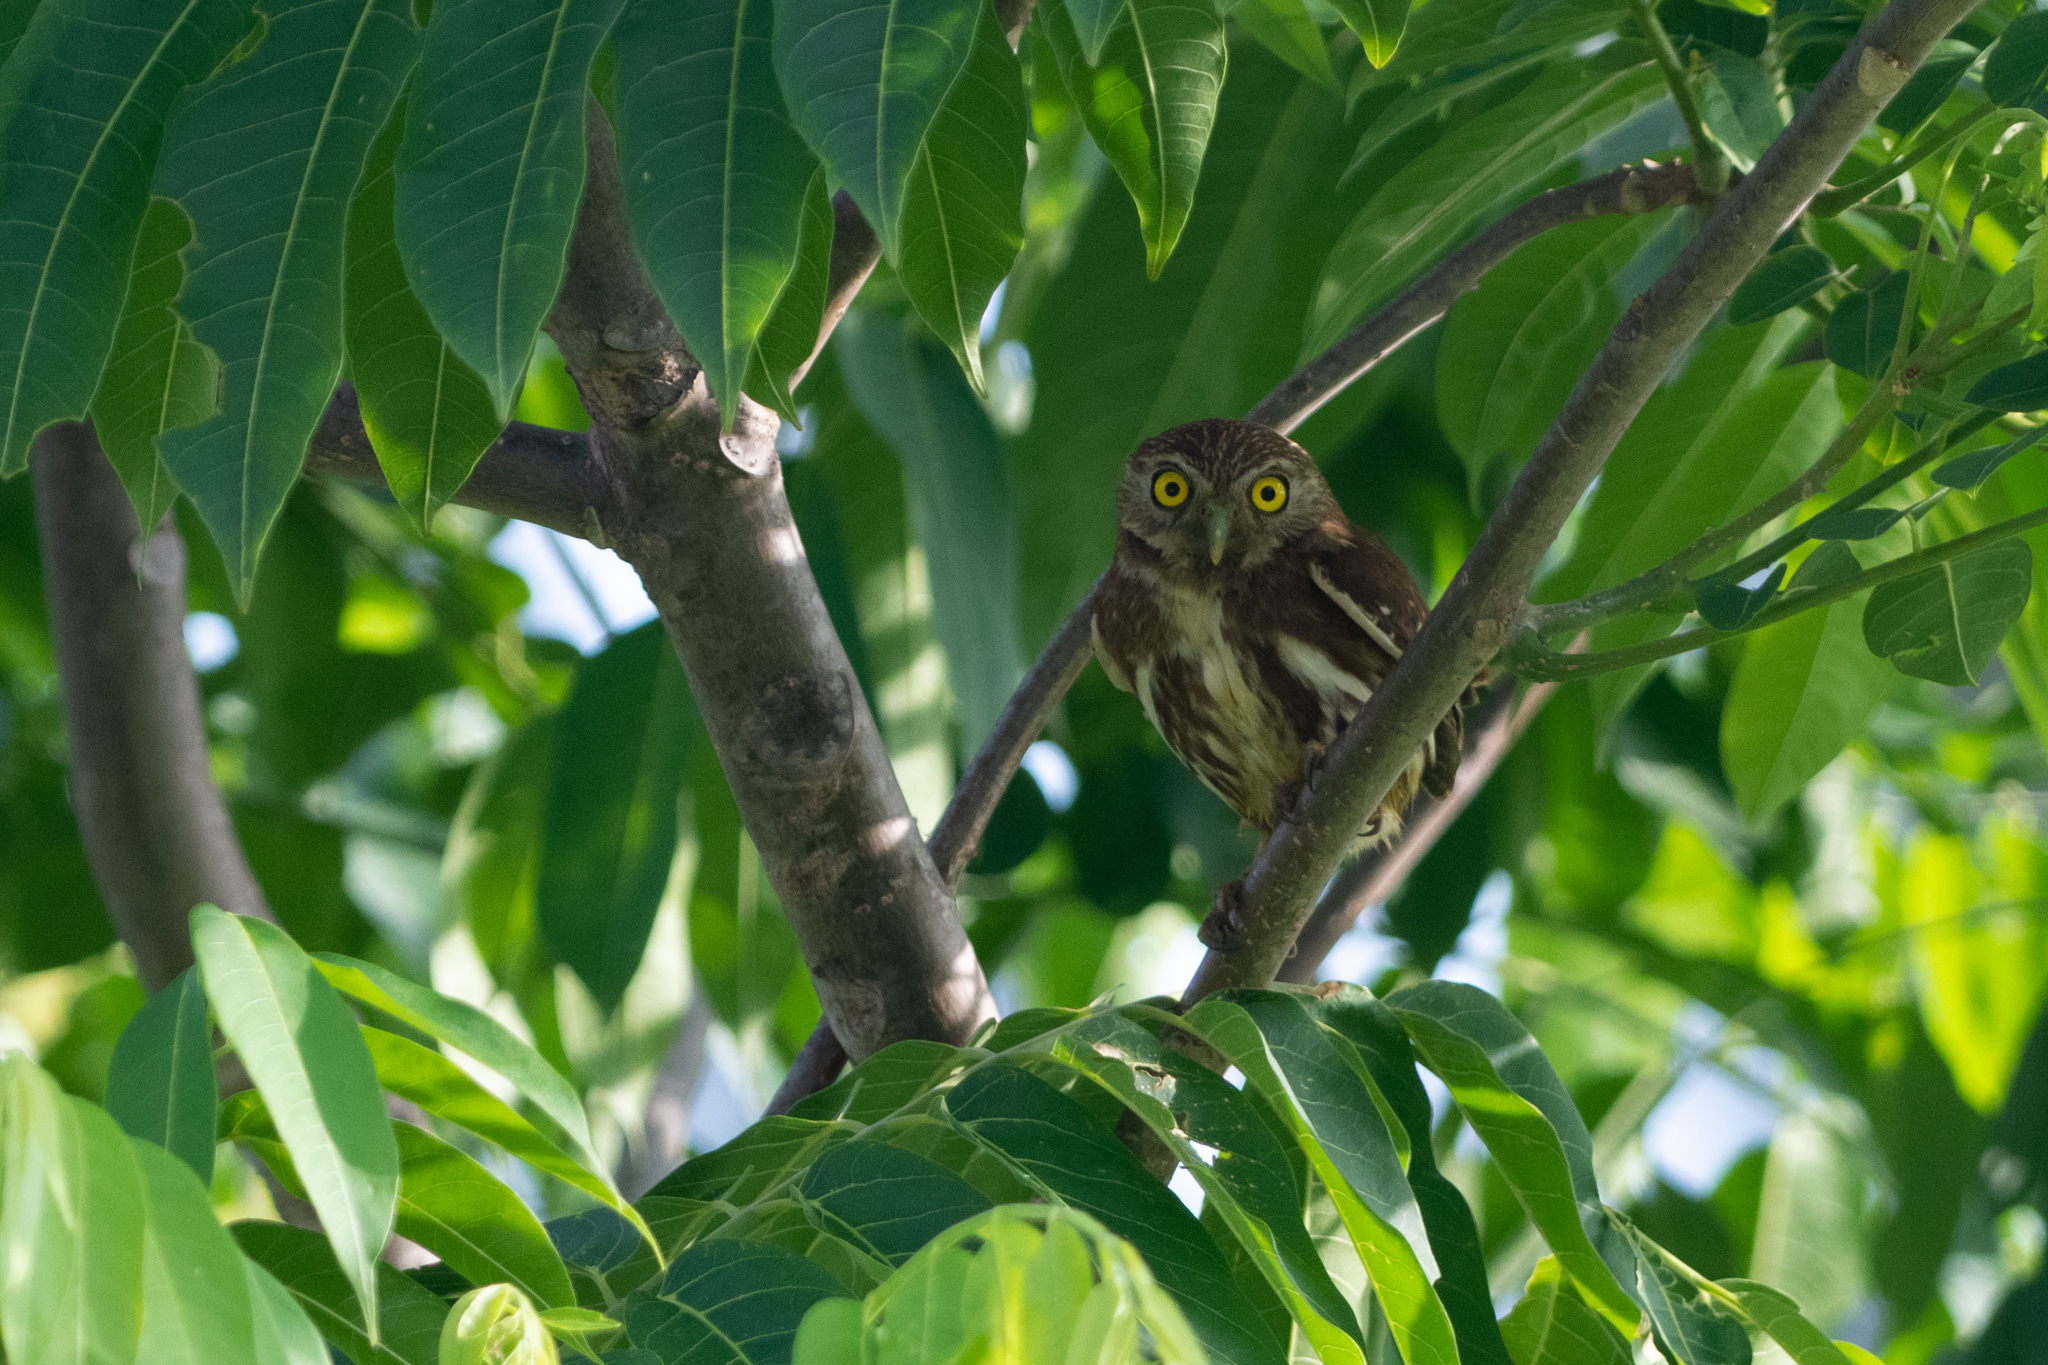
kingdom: Animalia
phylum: Chordata
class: Aves
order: Strigiformes
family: Strigidae
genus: Glaucidium
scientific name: Glaucidium brasilianum
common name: Ferruginous pygmy-owl
